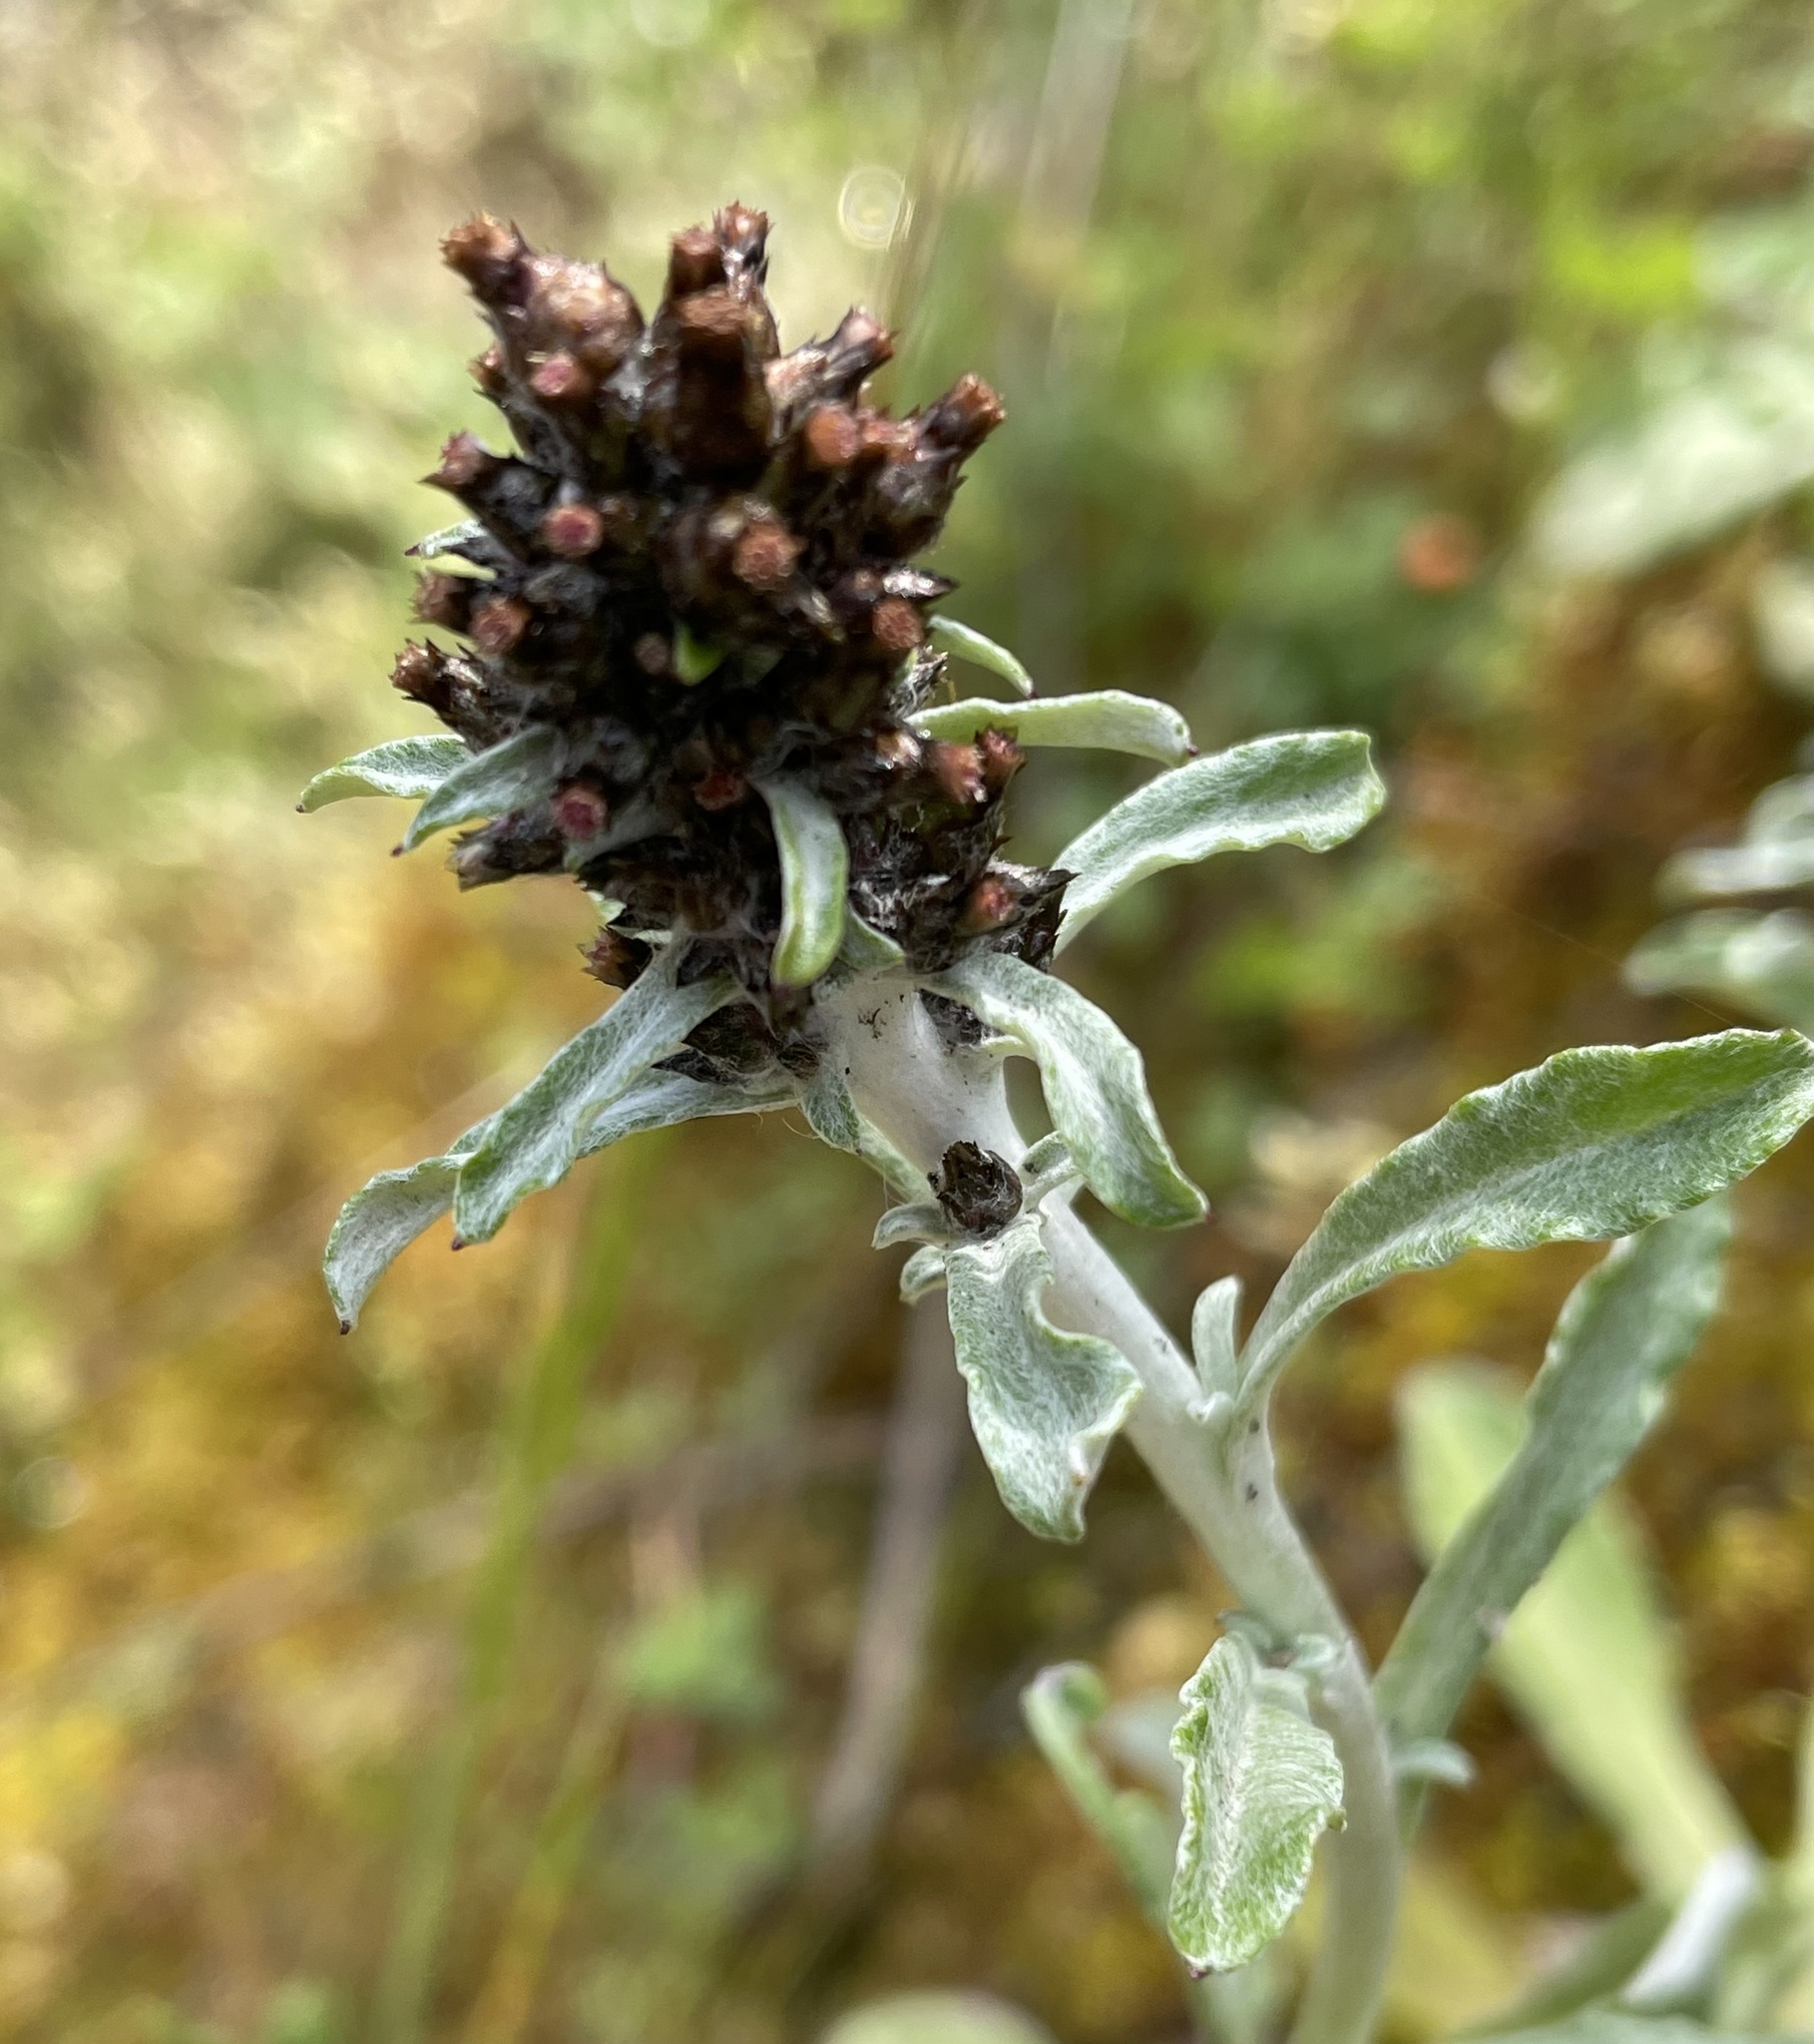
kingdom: Plantae
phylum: Tracheophyta
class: Magnoliopsida
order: Asterales
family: Asteraceae
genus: Gamochaeta
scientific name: Gamochaeta ustulata
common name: Pacific cudweed
